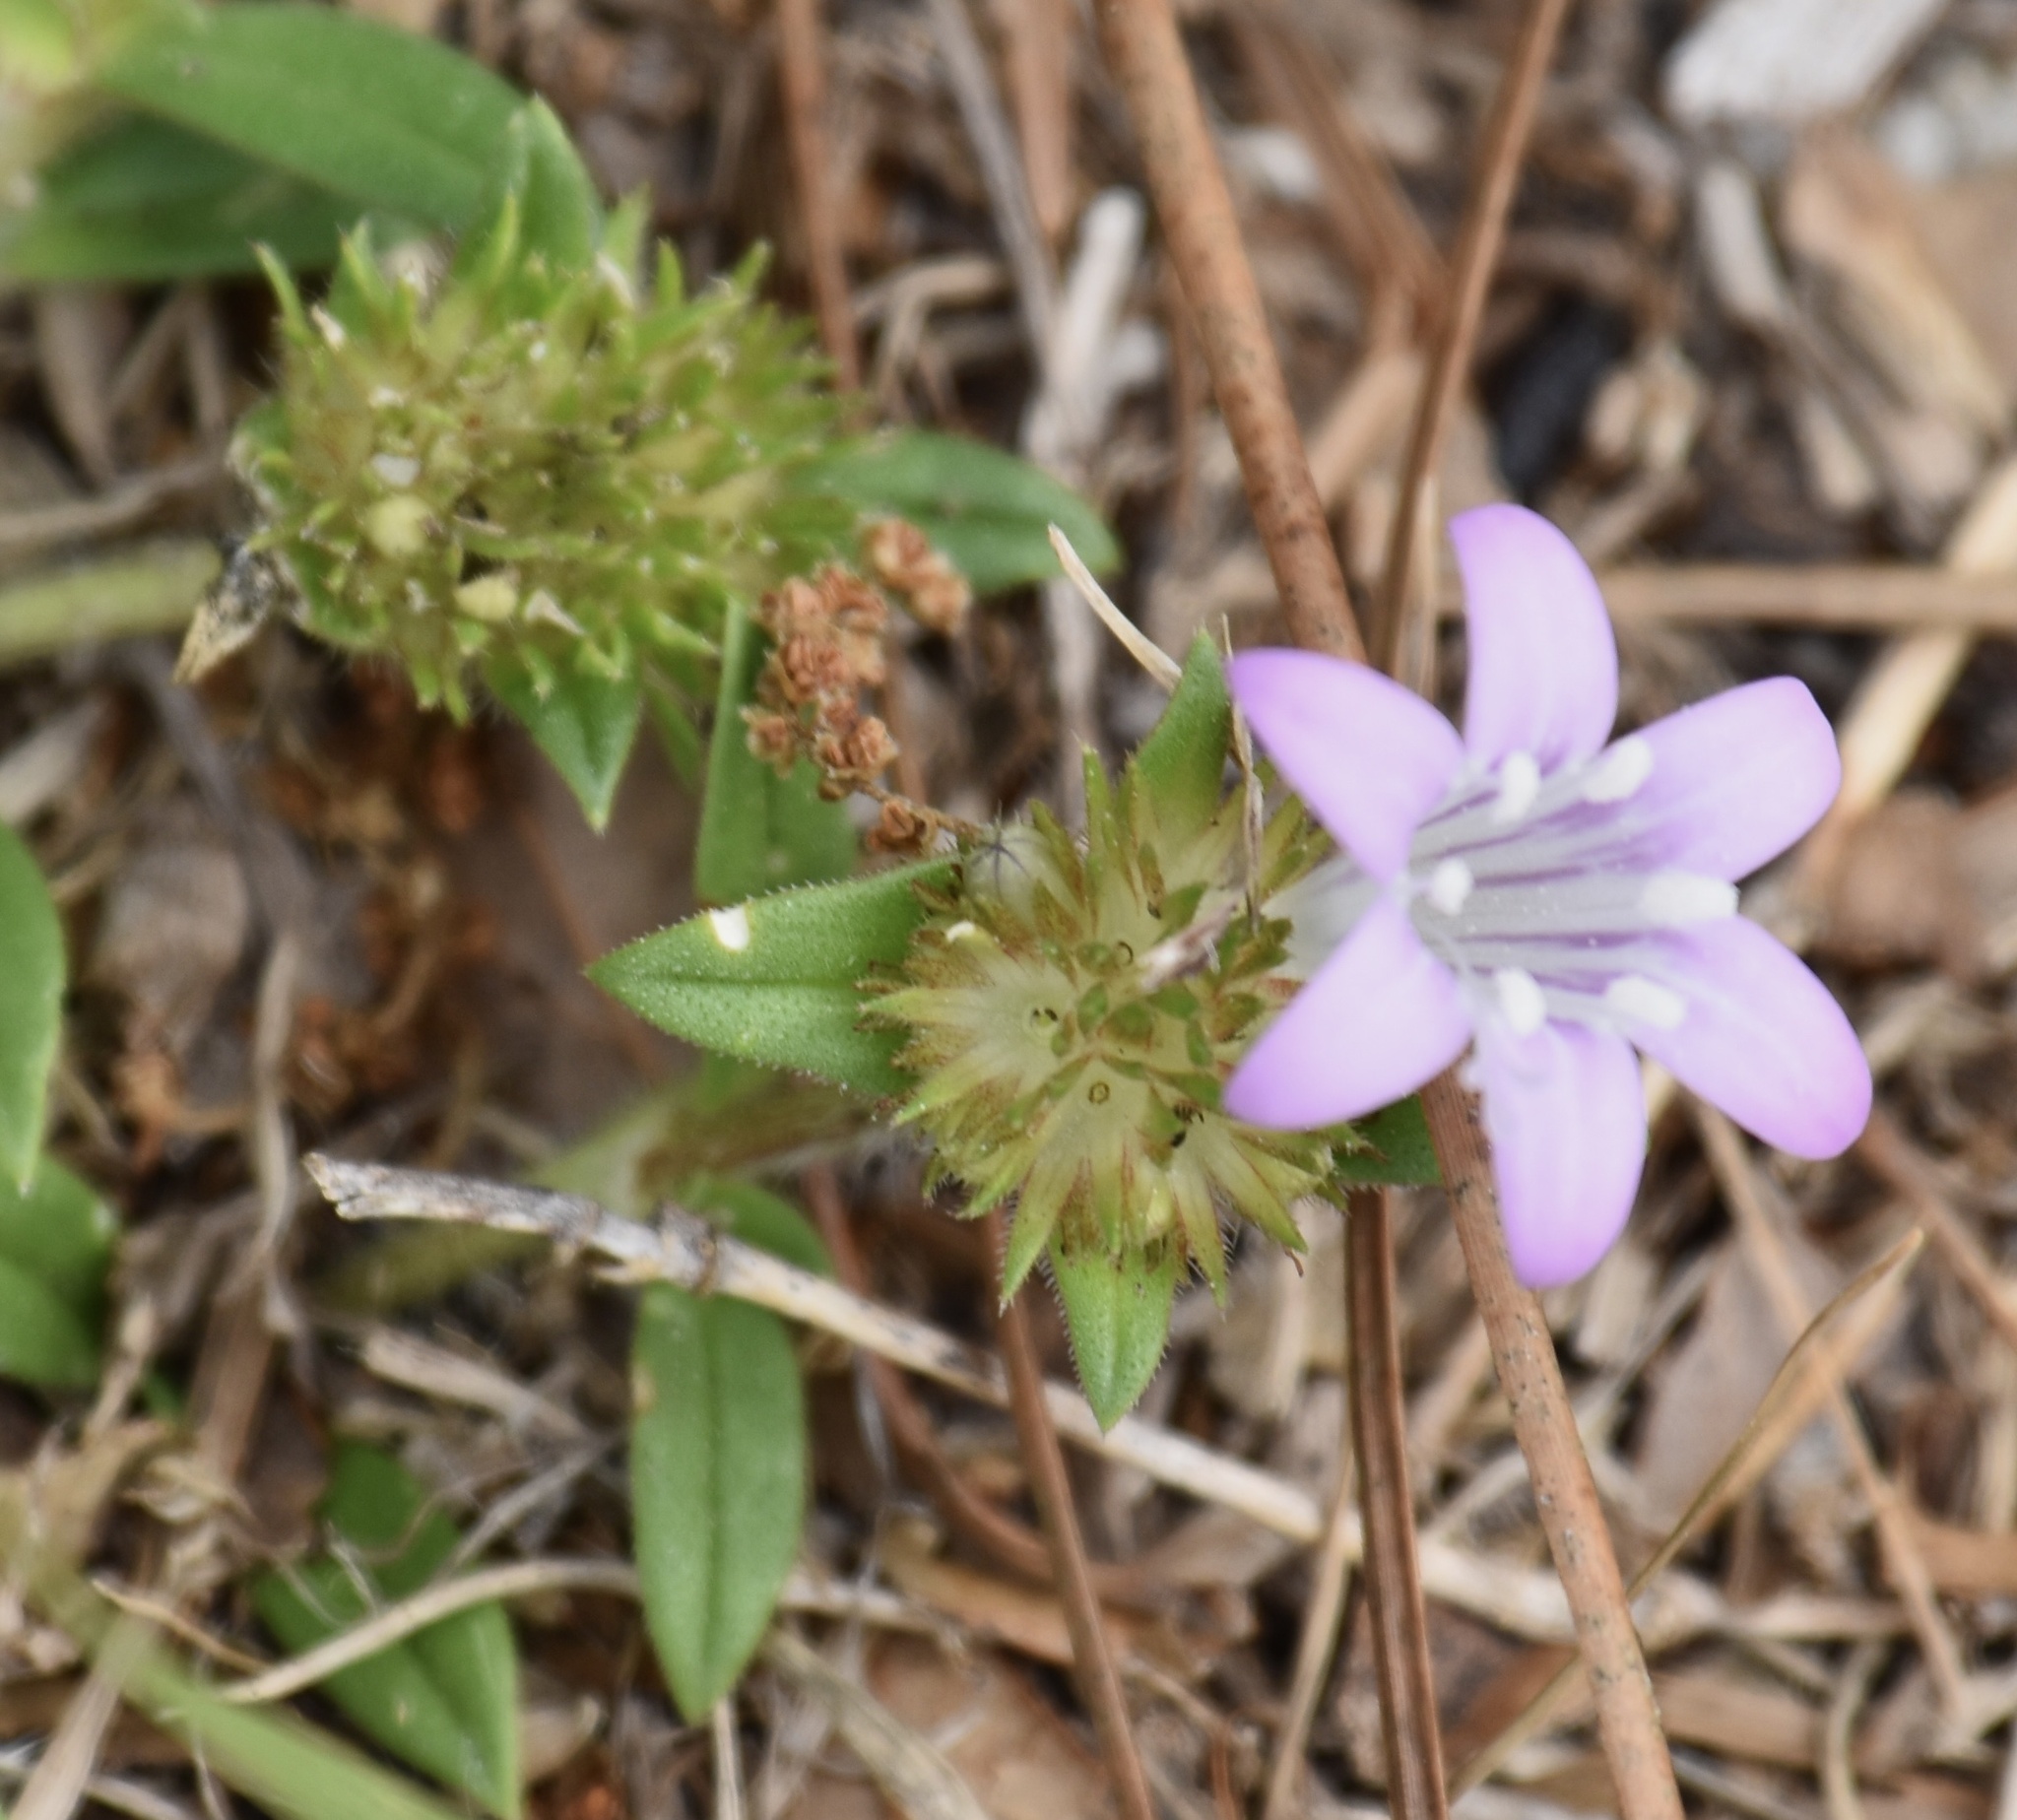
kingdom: Plantae
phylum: Tracheophyta
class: Magnoliopsida
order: Gentianales
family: Rubiaceae
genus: Richardia
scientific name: Richardia grandiflora
